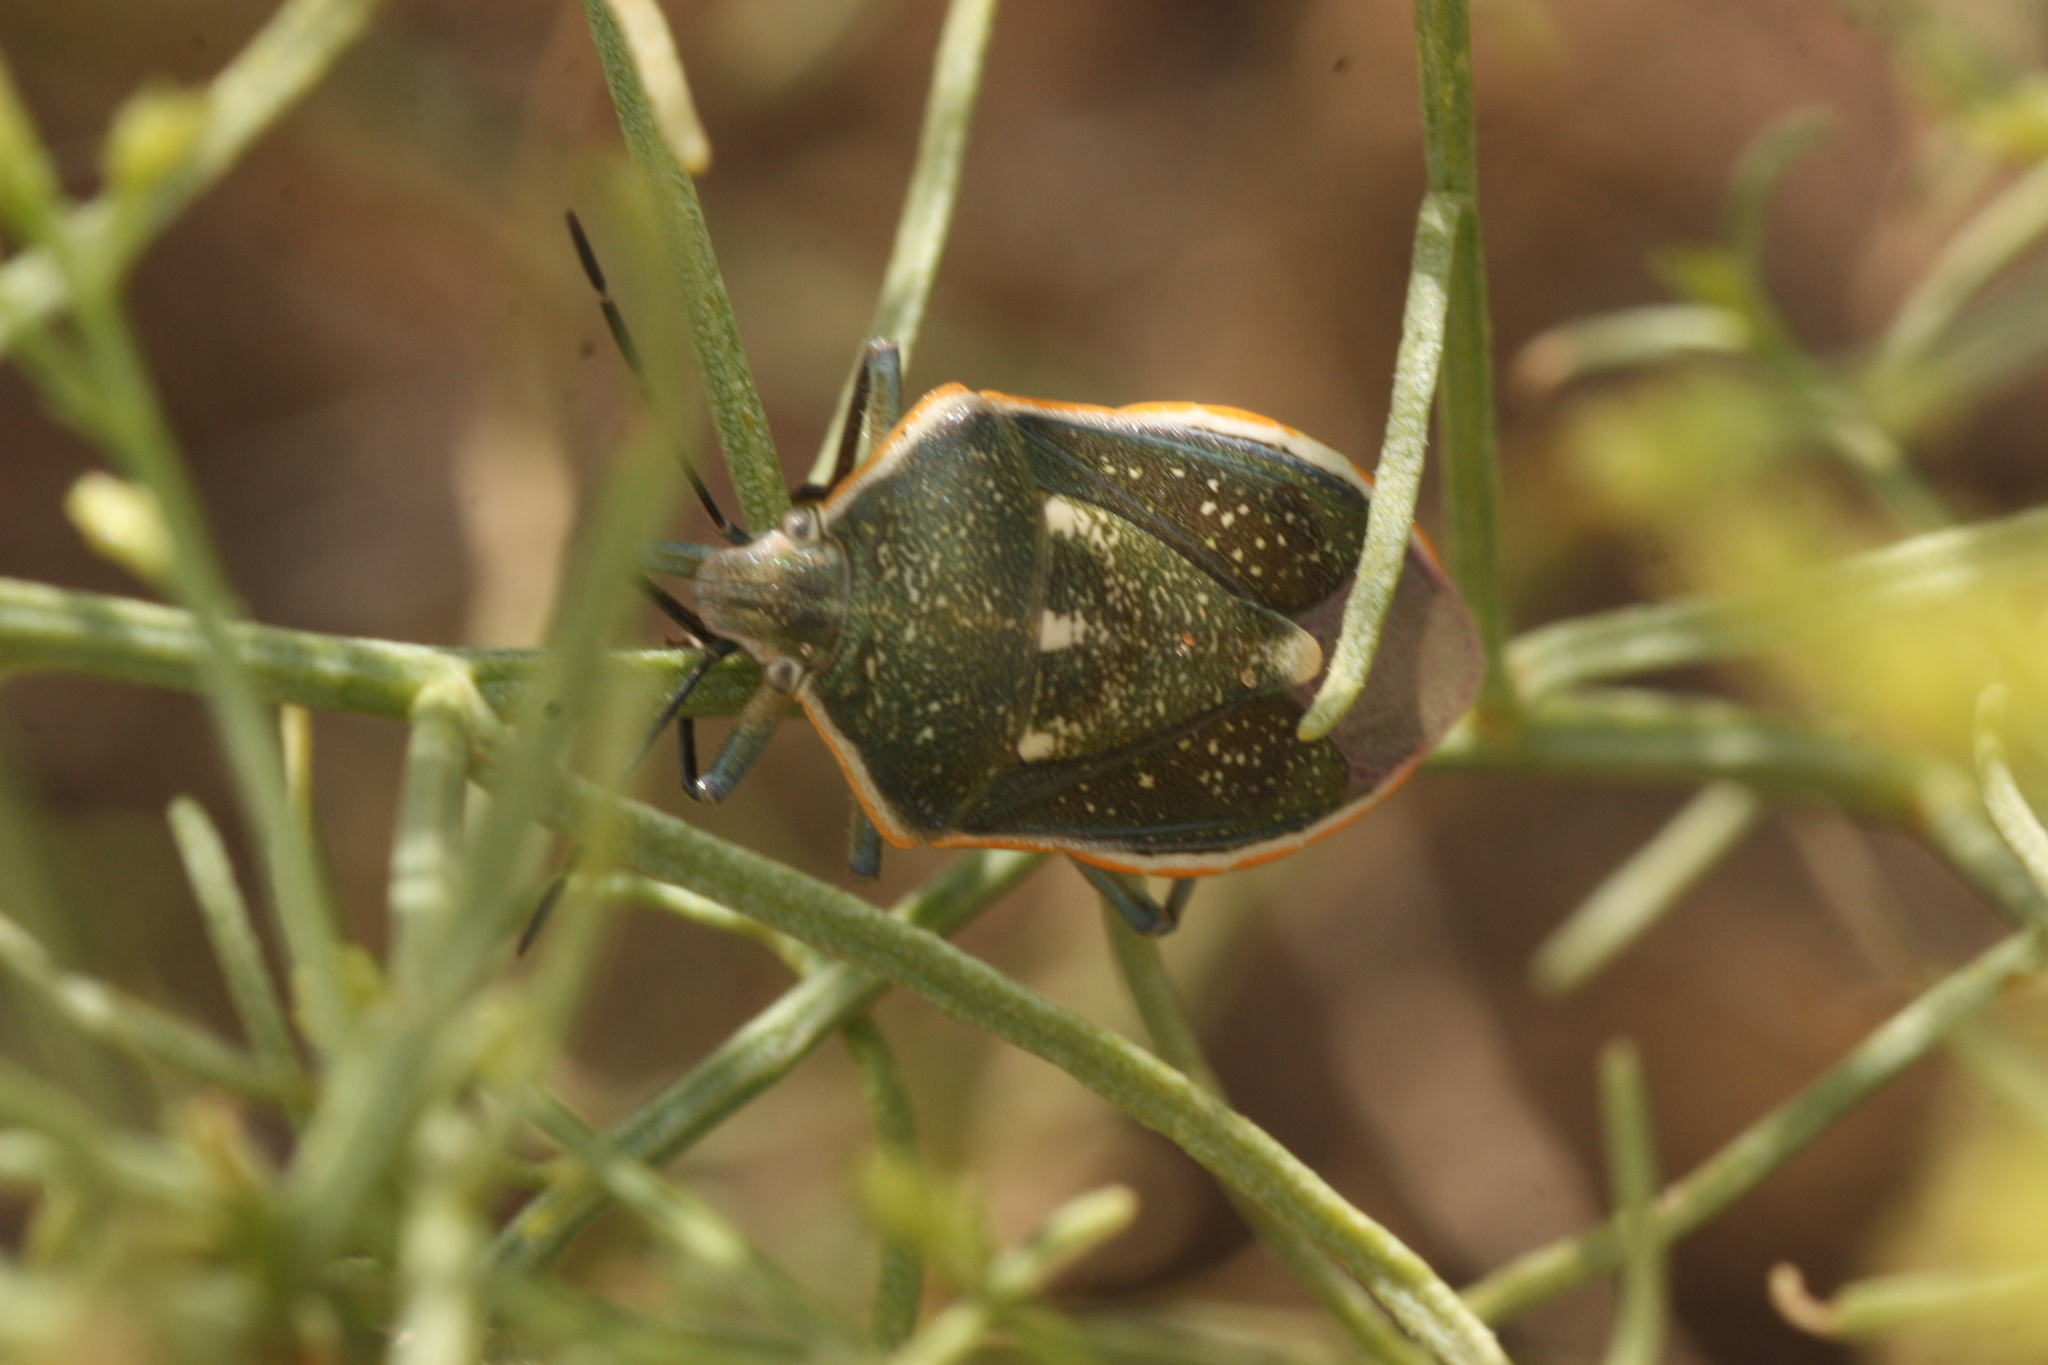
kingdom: Animalia
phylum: Arthropoda
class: Insecta
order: Hemiptera
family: Pentatomidae
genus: Chlorochroa
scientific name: Chlorochroa sayi
